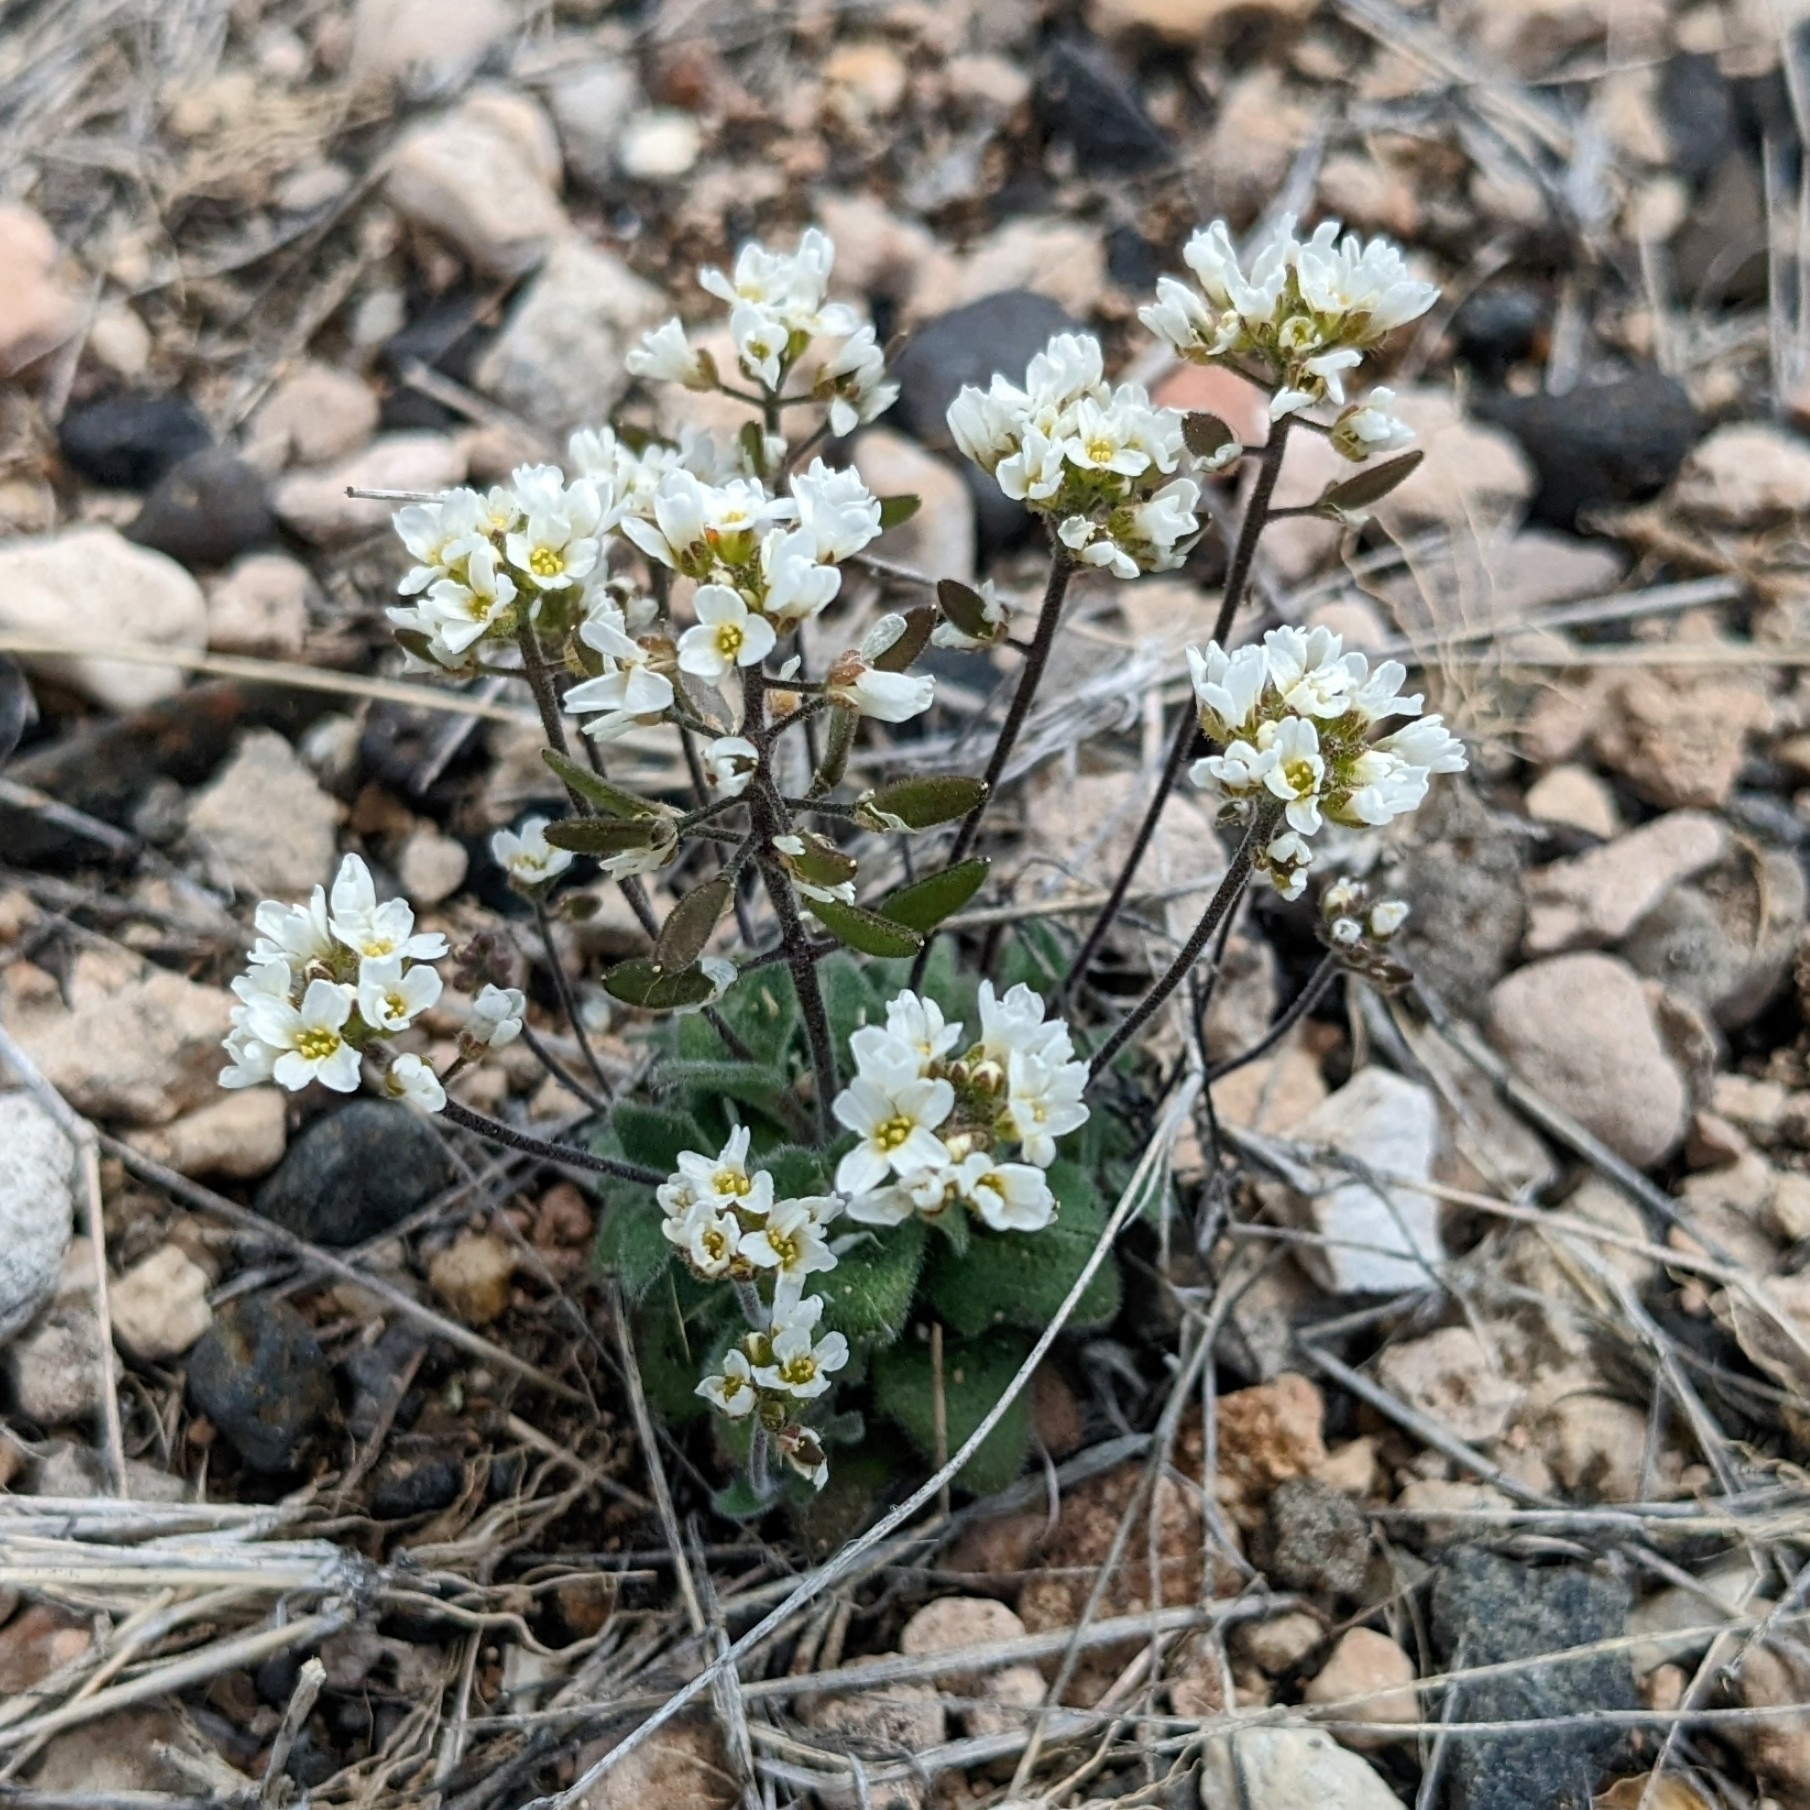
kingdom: Plantae
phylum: Tracheophyta
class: Magnoliopsida
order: Brassicales
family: Brassicaceae
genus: Tomostima
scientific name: Tomostima cuneifolia
